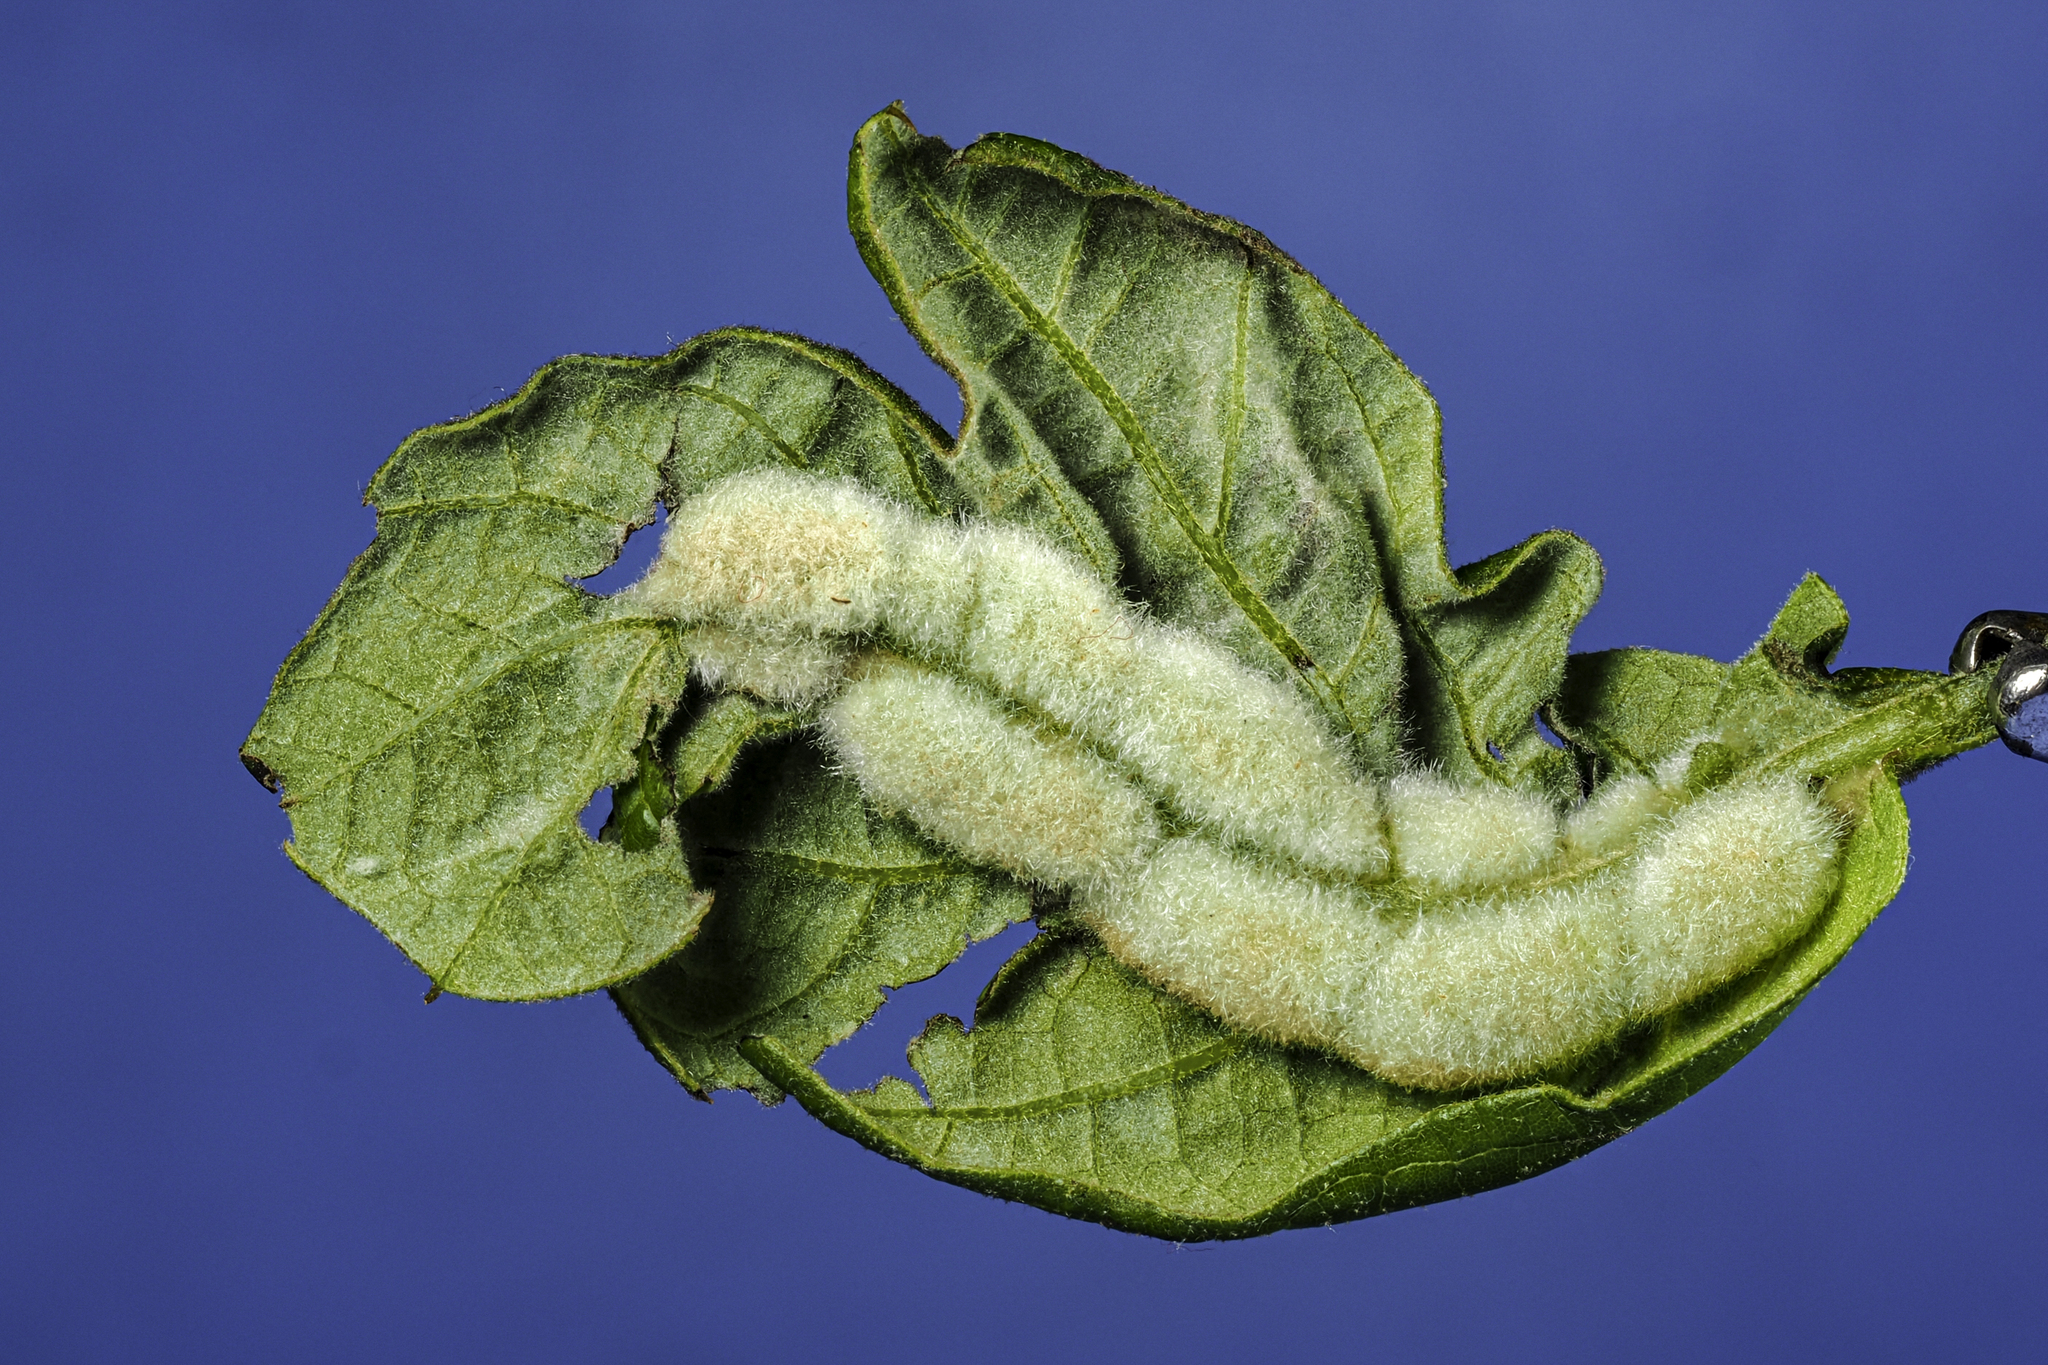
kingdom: Animalia
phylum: Arthropoda
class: Insecta
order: Diptera
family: Cecidomyiidae
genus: Macrodiplosis
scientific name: Macrodiplosis niveipila
